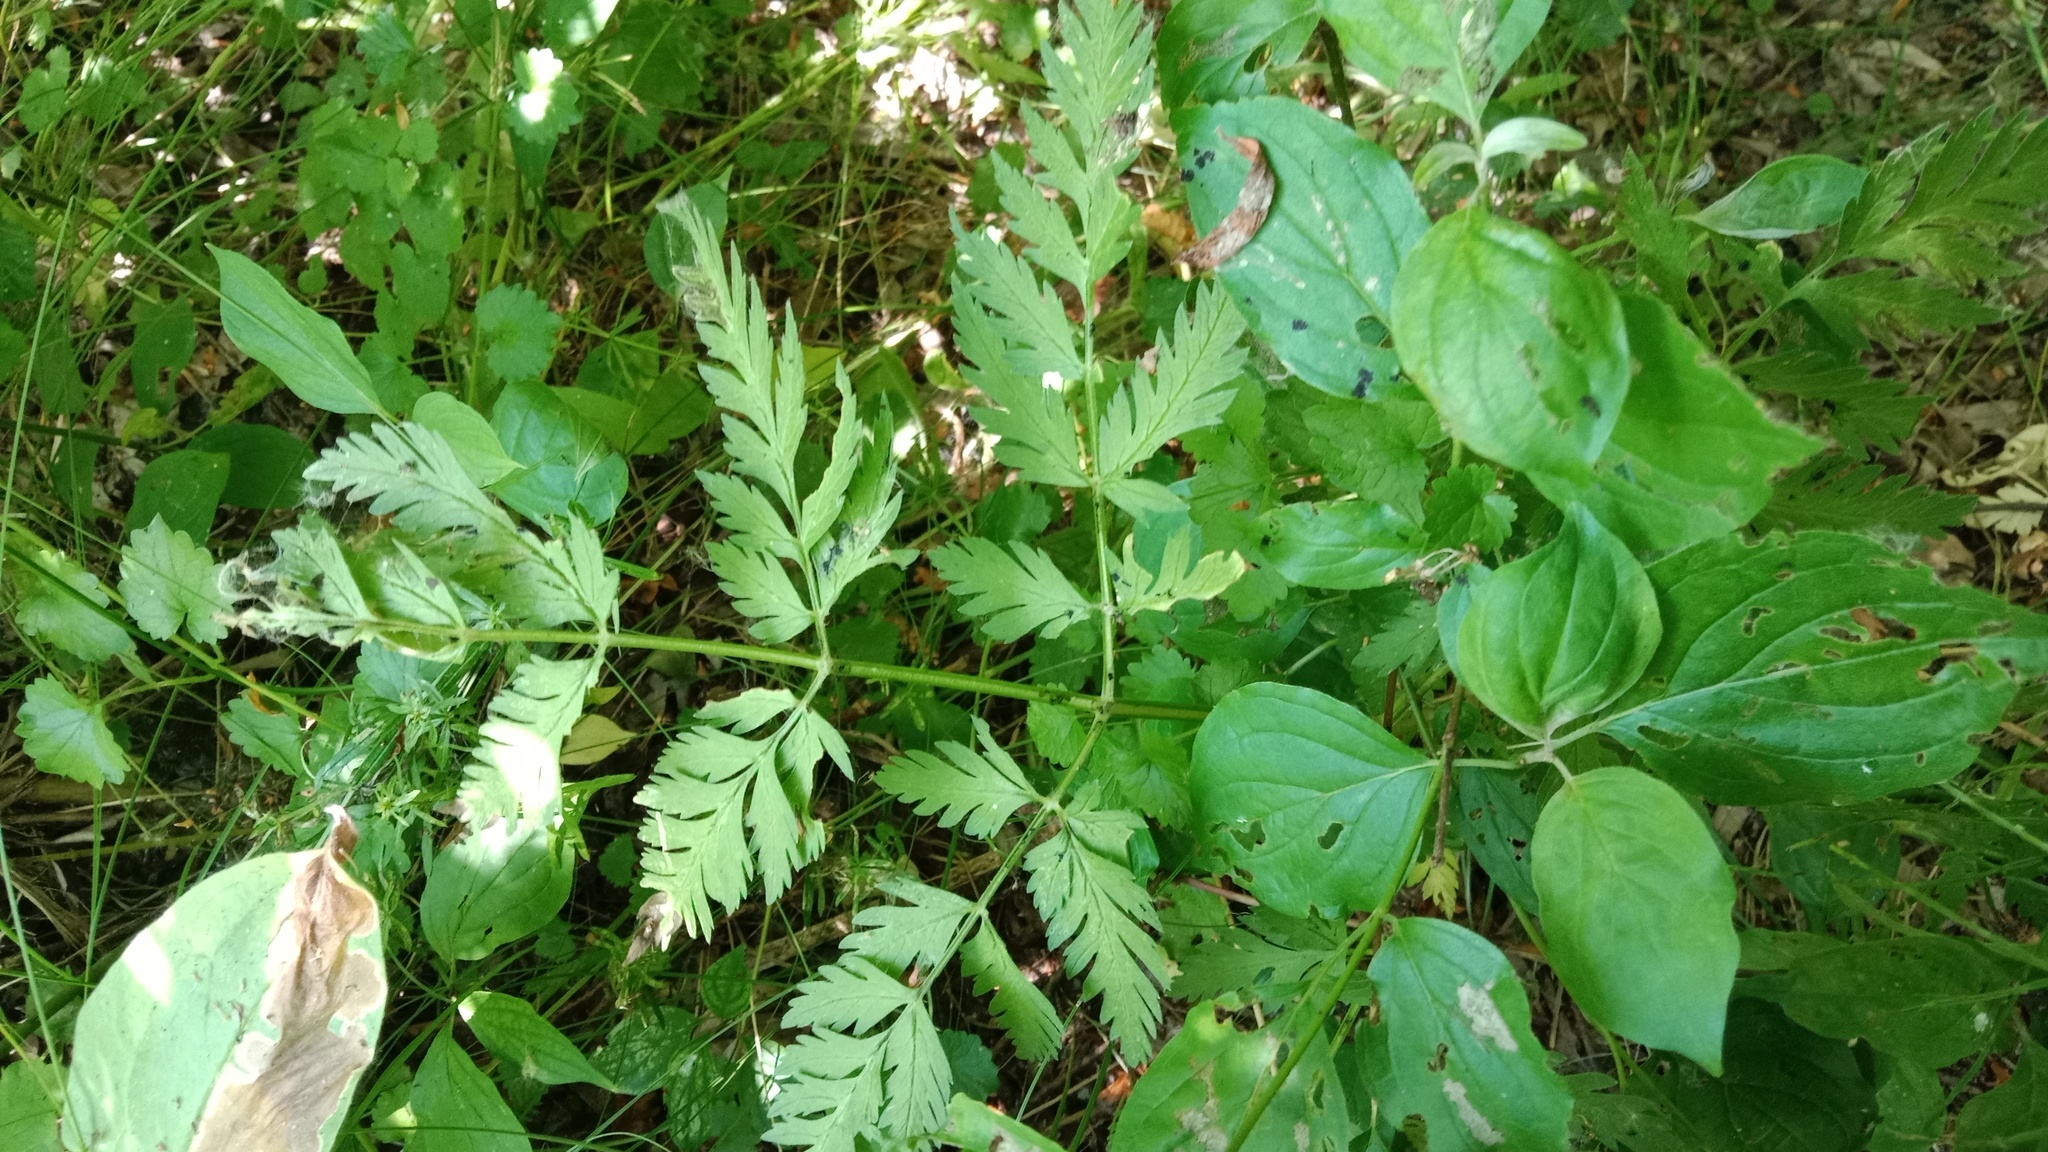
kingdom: Plantae
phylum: Tracheophyta
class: Magnoliopsida
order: Apiales
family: Apiaceae
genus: Anthriscus
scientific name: Anthriscus sylvestris
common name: Cow parsley
